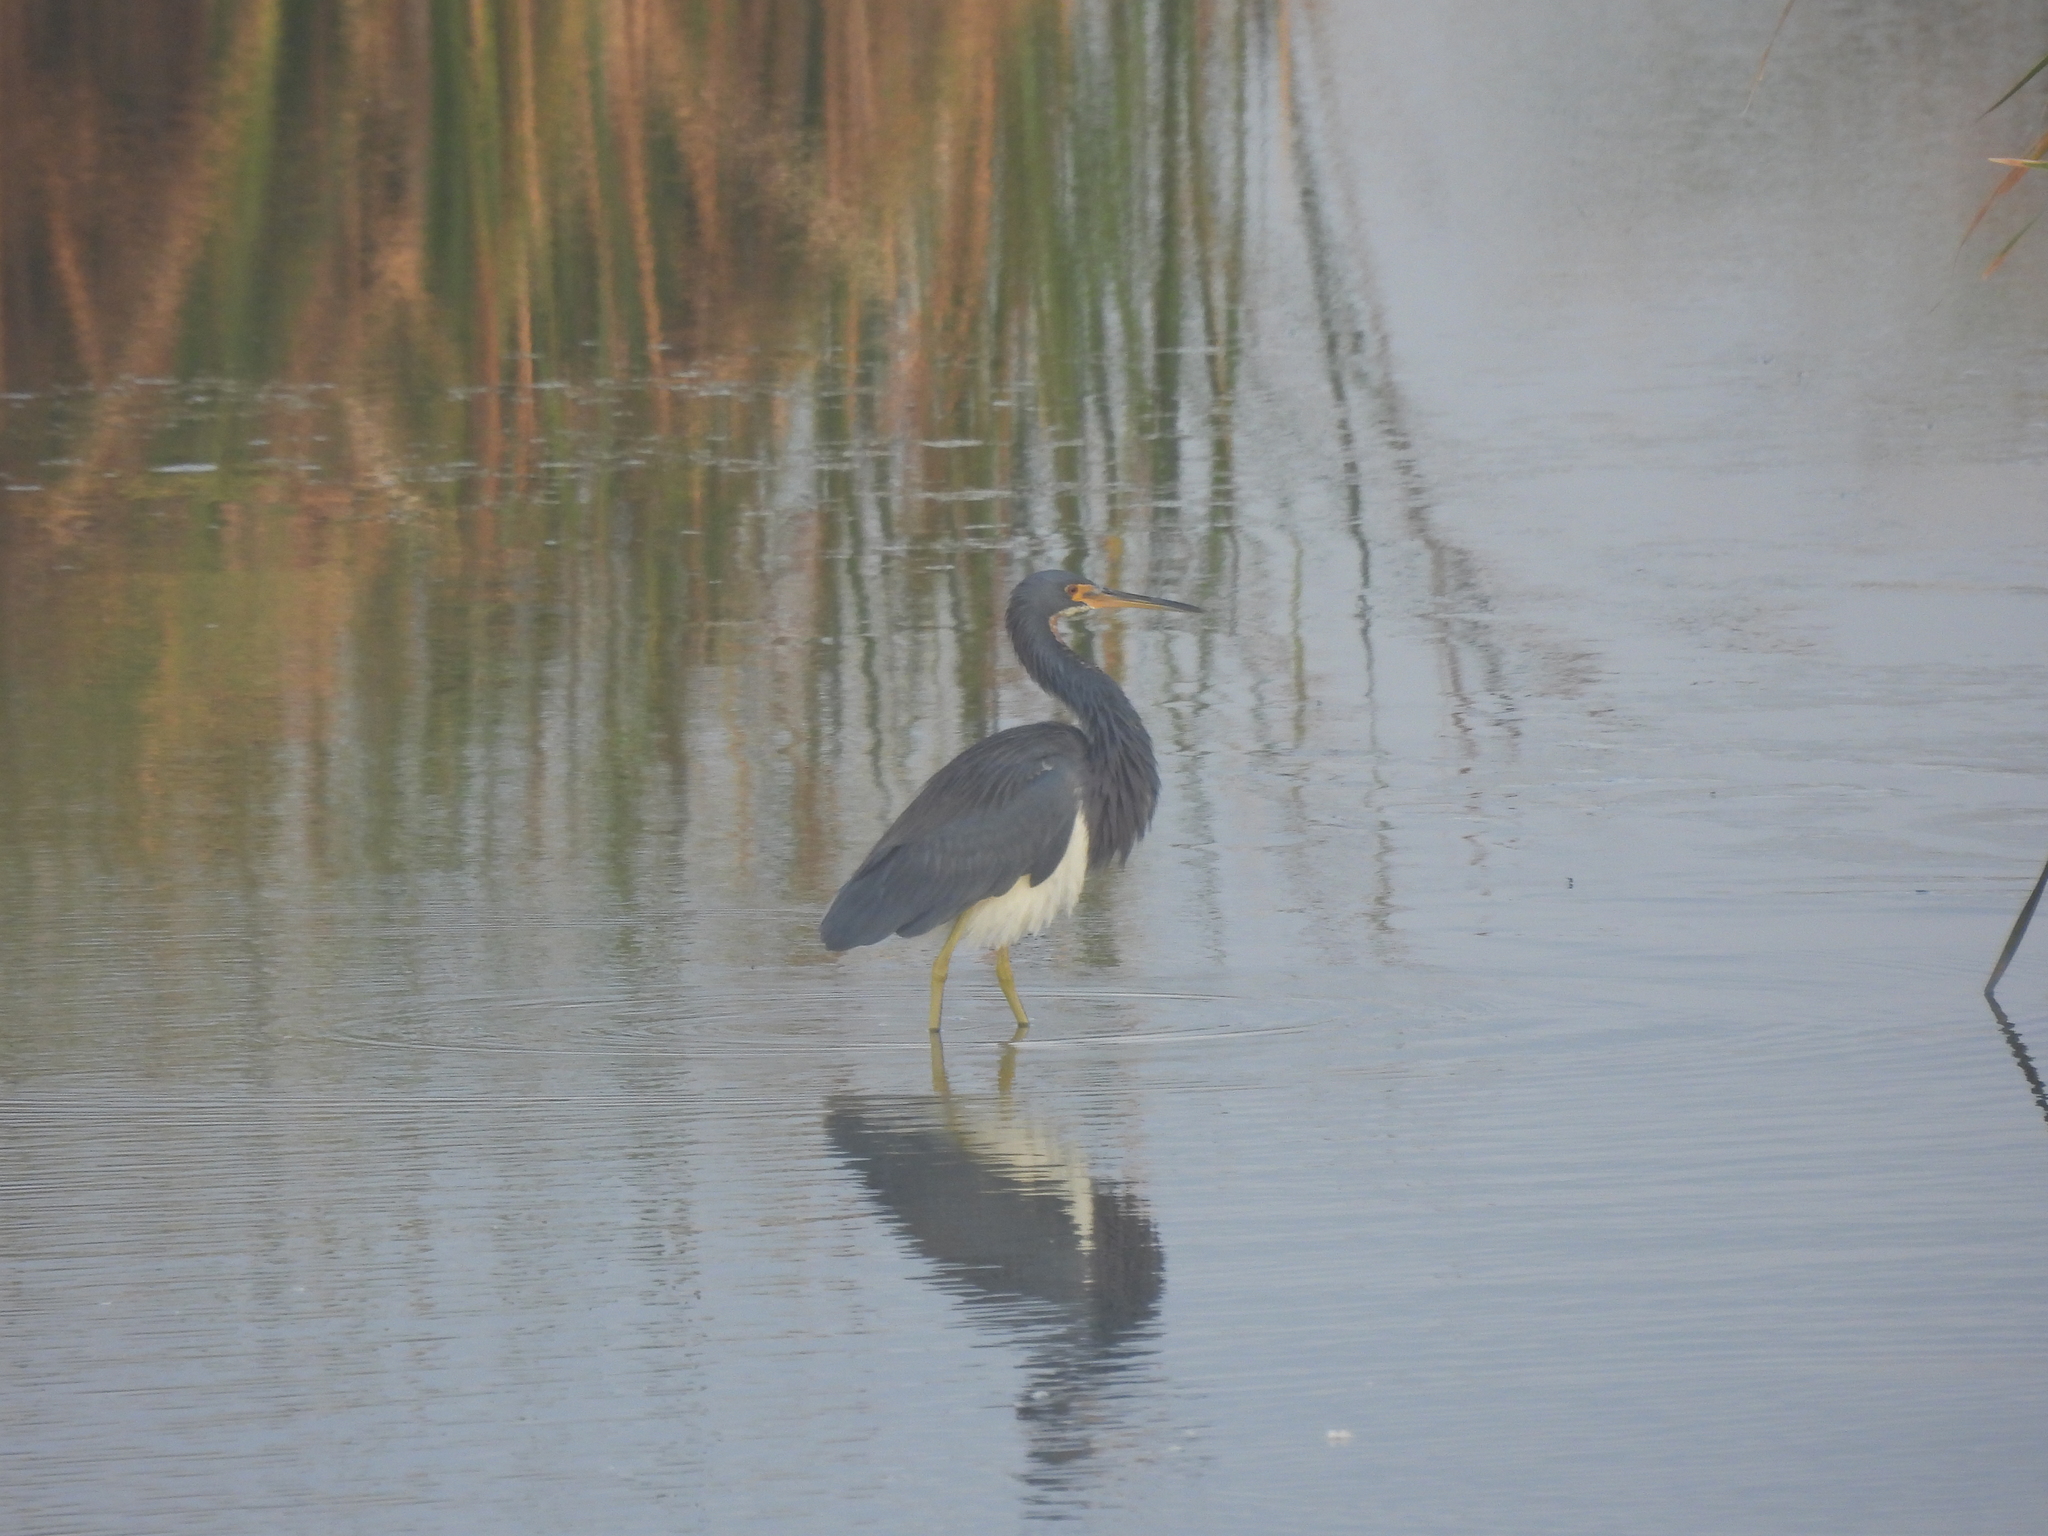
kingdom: Animalia
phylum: Chordata
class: Aves
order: Pelecaniformes
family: Ardeidae
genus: Egretta
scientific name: Egretta tricolor
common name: Tricolored heron
